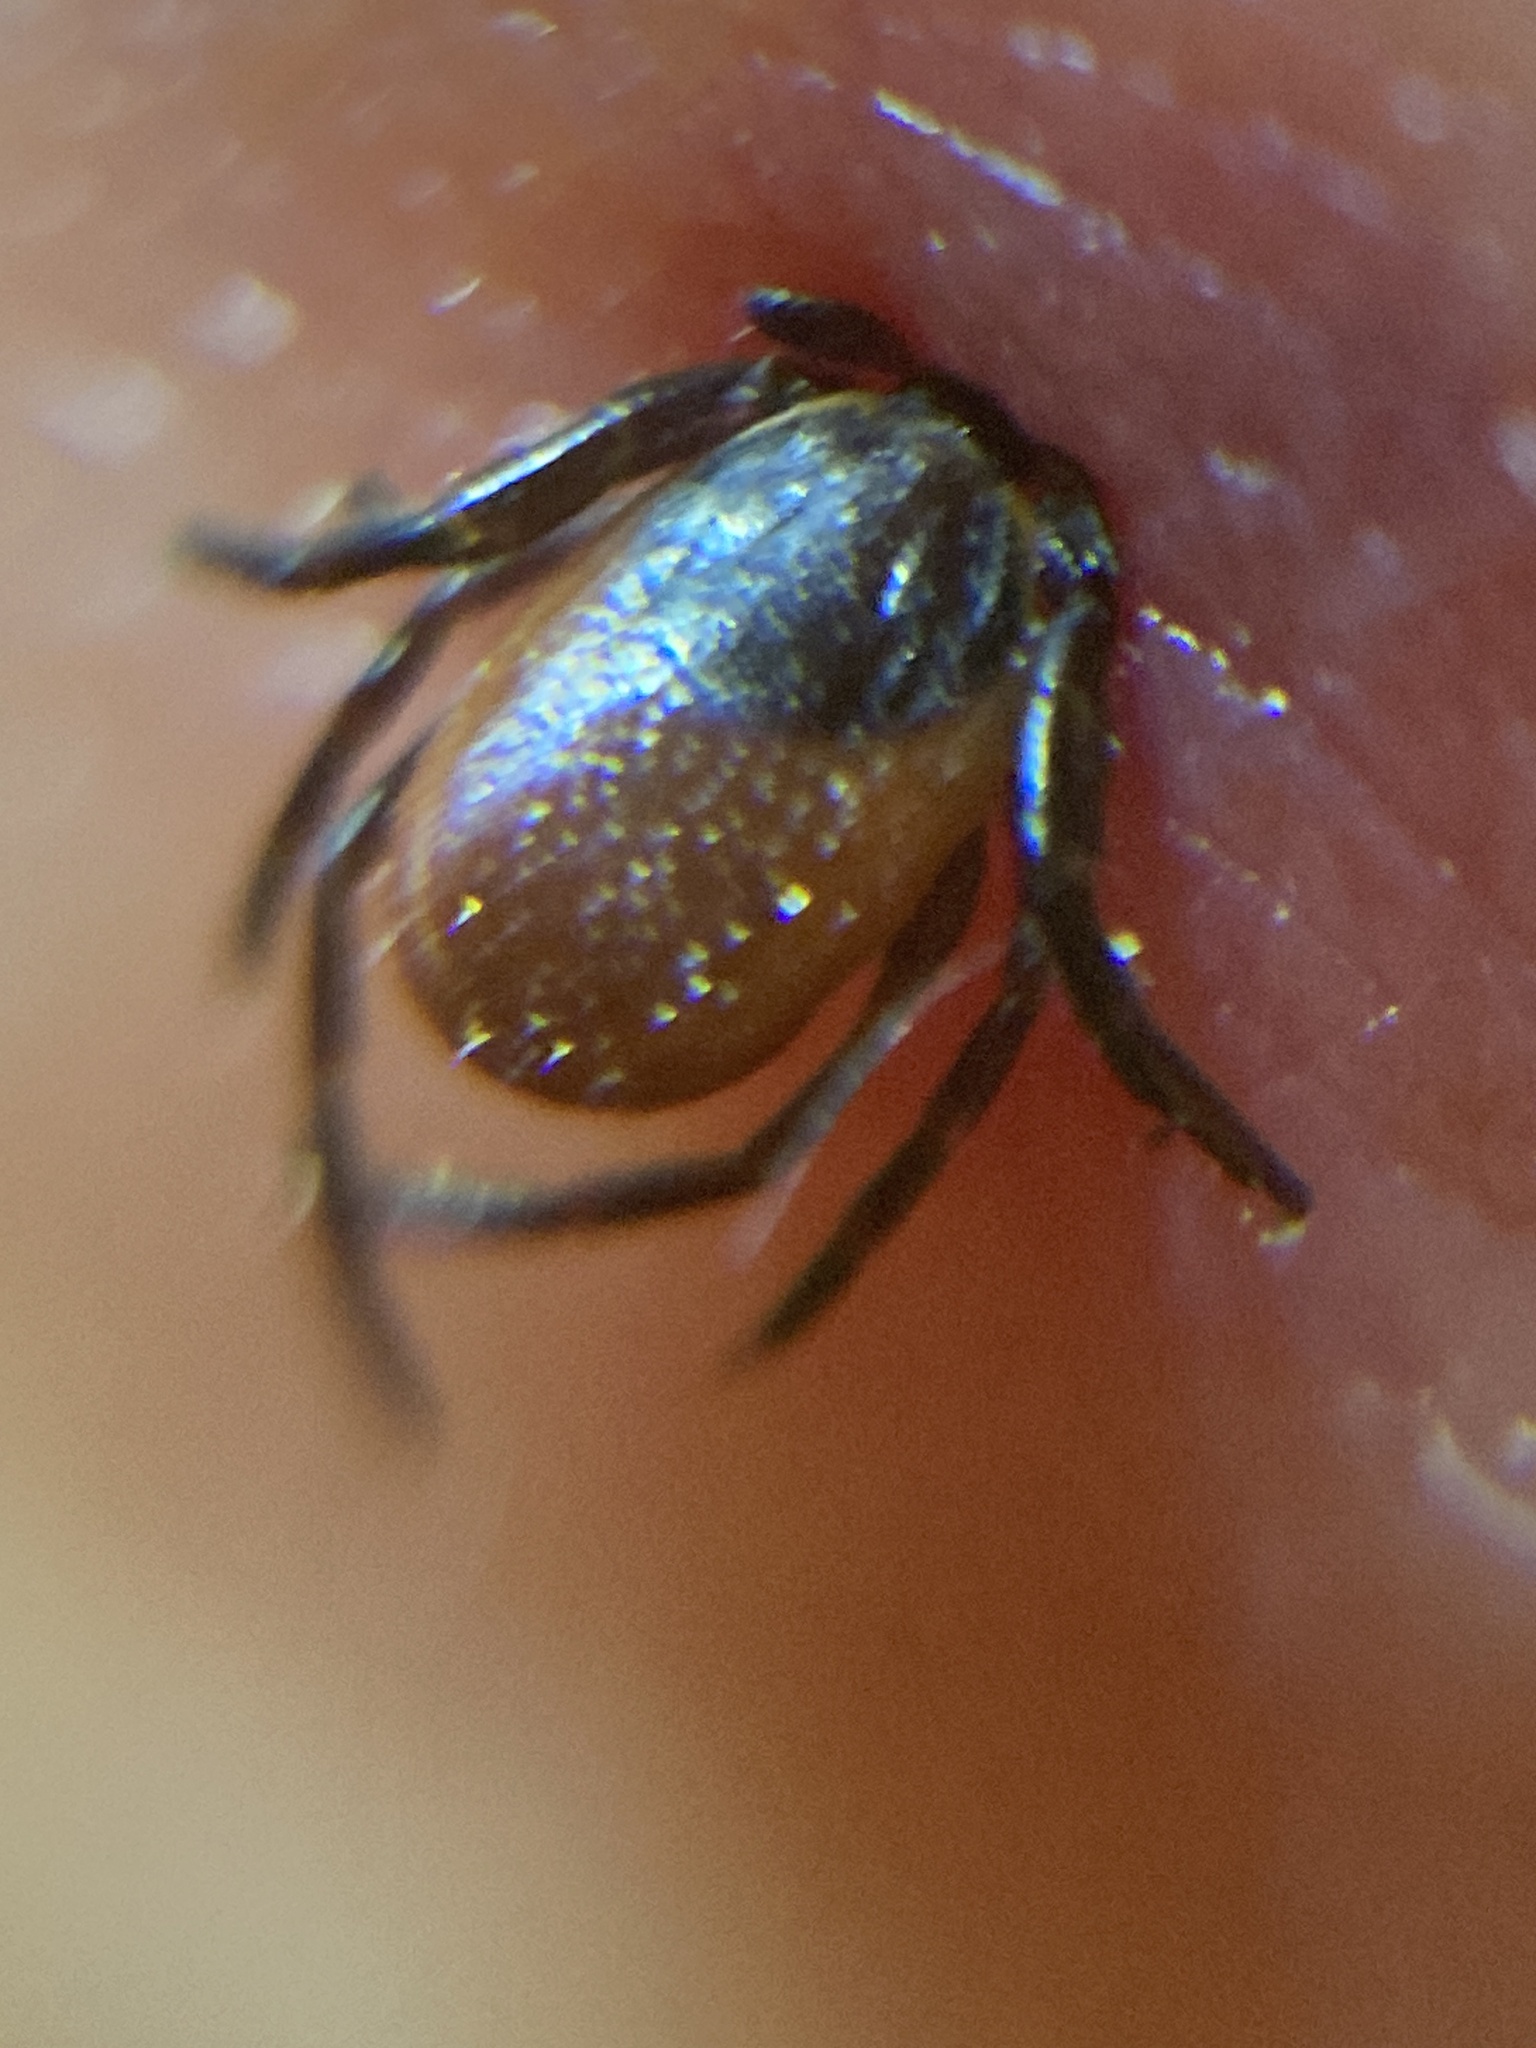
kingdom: Animalia
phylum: Arthropoda
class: Arachnida
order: Ixodida
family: Ixodidae
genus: Ixodes
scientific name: Ixodes pacificus
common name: California black-legged tick
